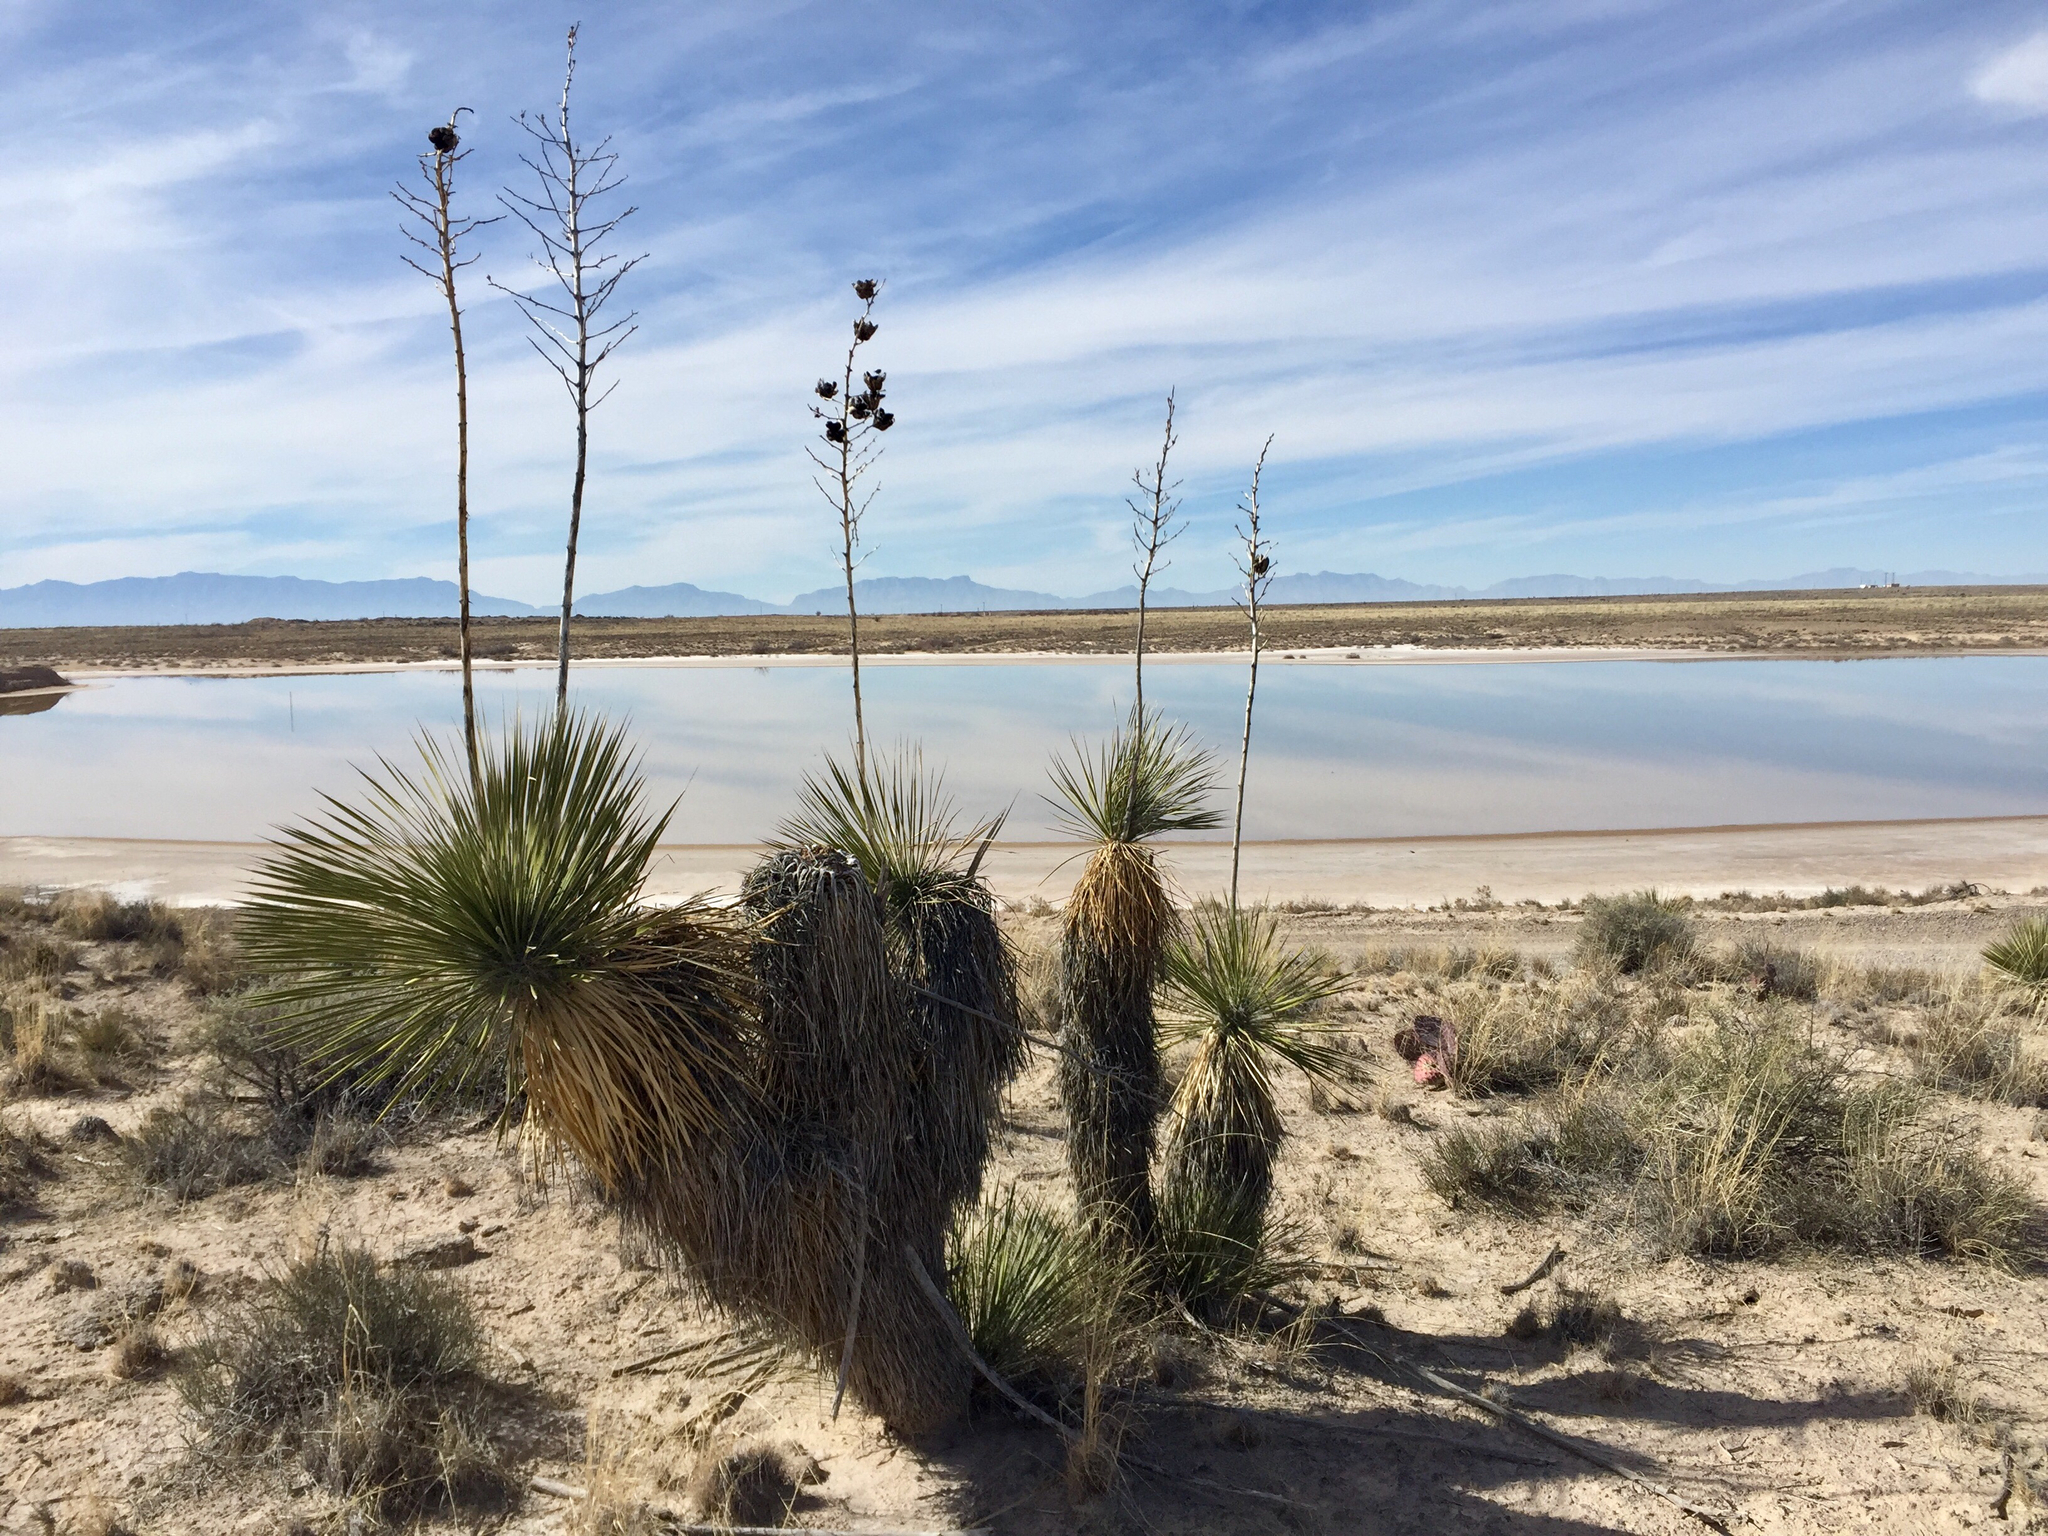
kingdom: Plantae
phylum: Tracheophyta
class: Liliopsida
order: Asparagales
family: Asparagaceae
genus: Yucca
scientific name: Yucca elata
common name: Palmella
